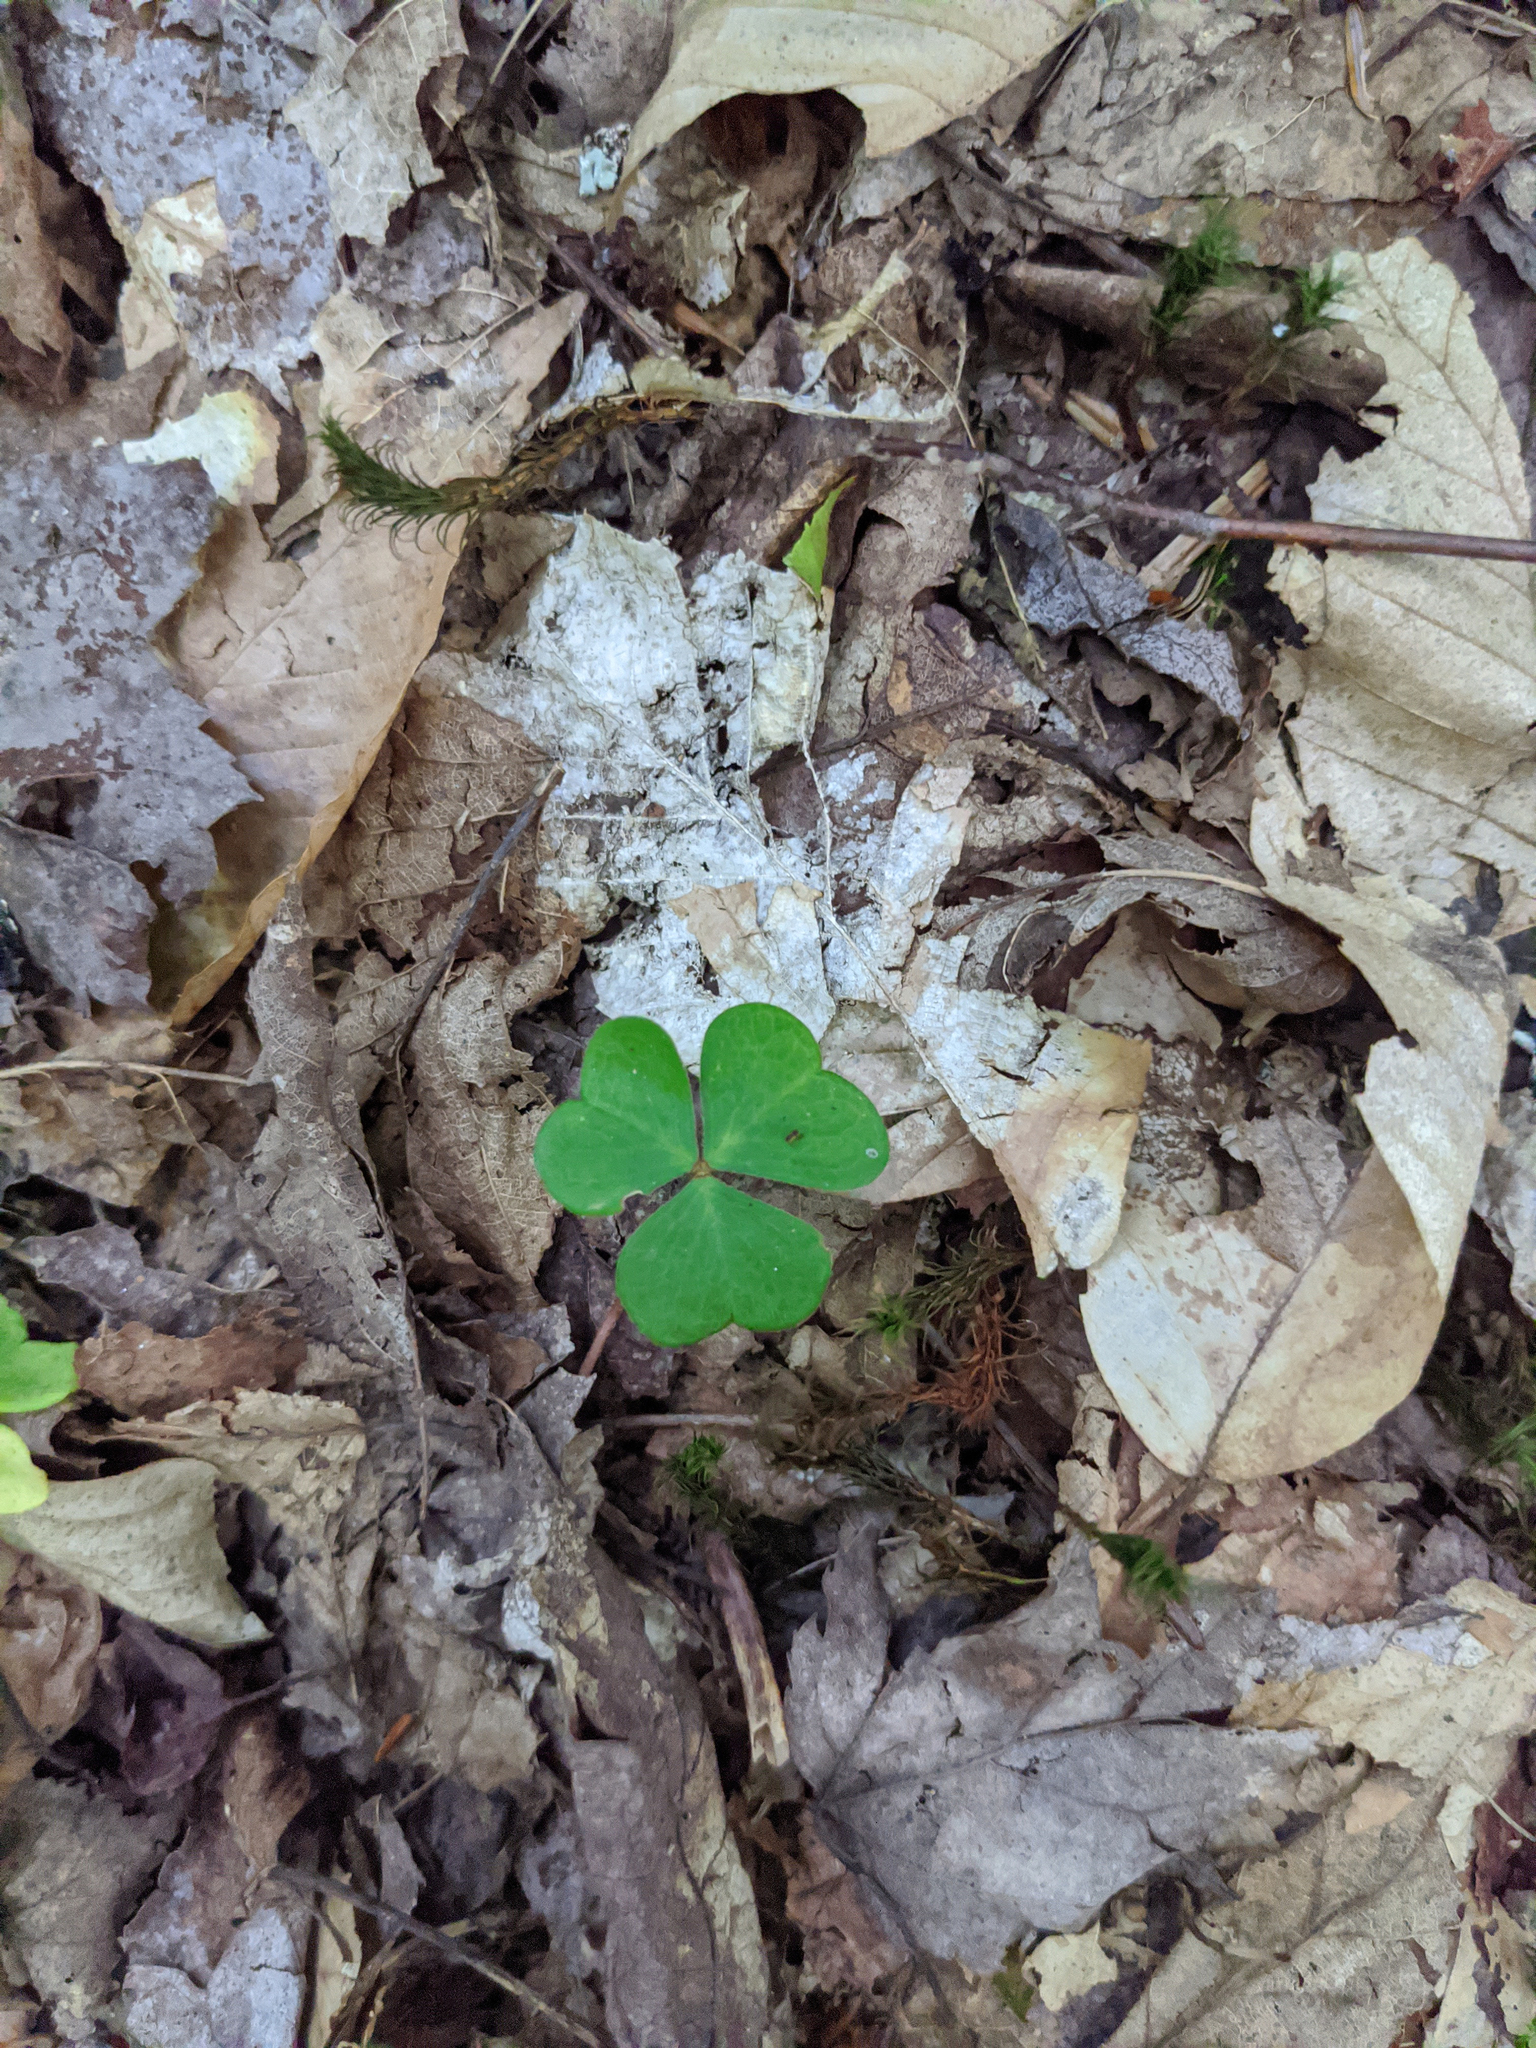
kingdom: Plantae
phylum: Tracheophyta
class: Magnoliopsida
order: Oxalidales
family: Oxalidaceae
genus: Oxalis
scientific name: Oxalis montana
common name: American wood-sorrel
